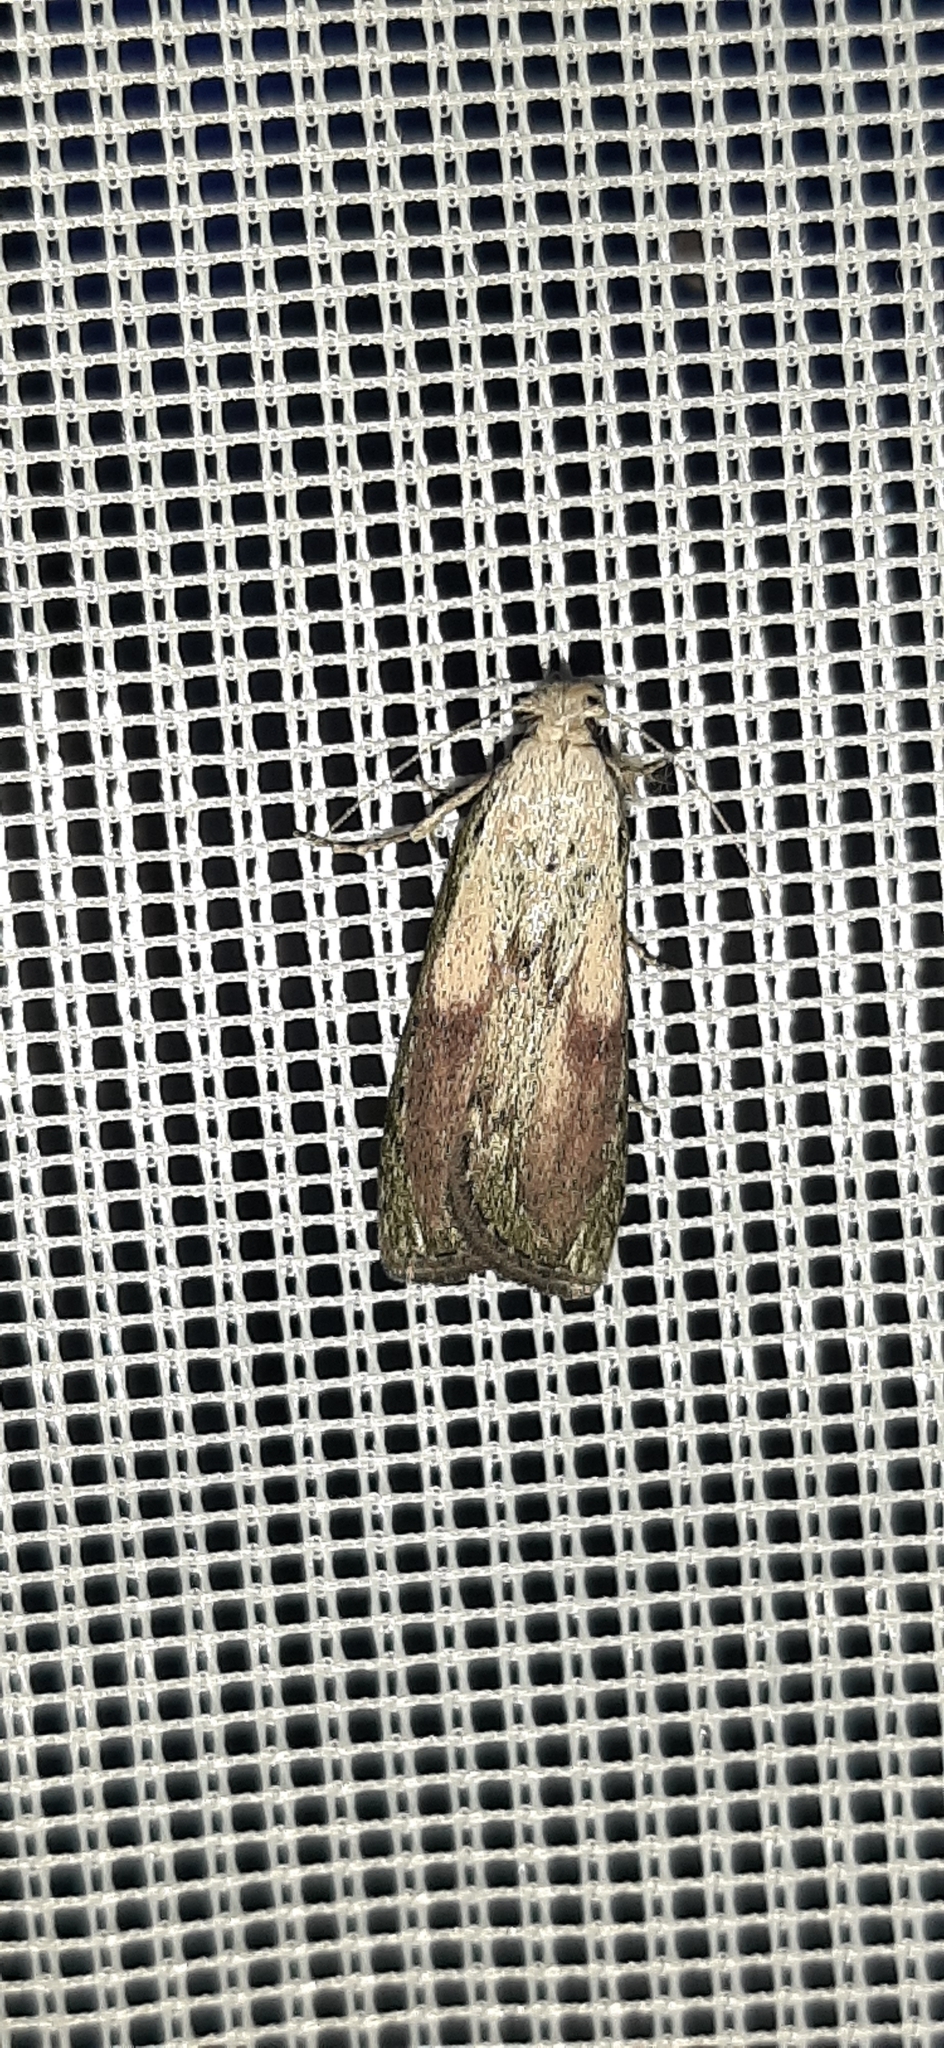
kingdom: Animalia
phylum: Arthropoda
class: Insecta
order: Lepidoptera
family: Pyralidae
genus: Aphomia
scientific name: Aphomia sociella
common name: Bee moth
